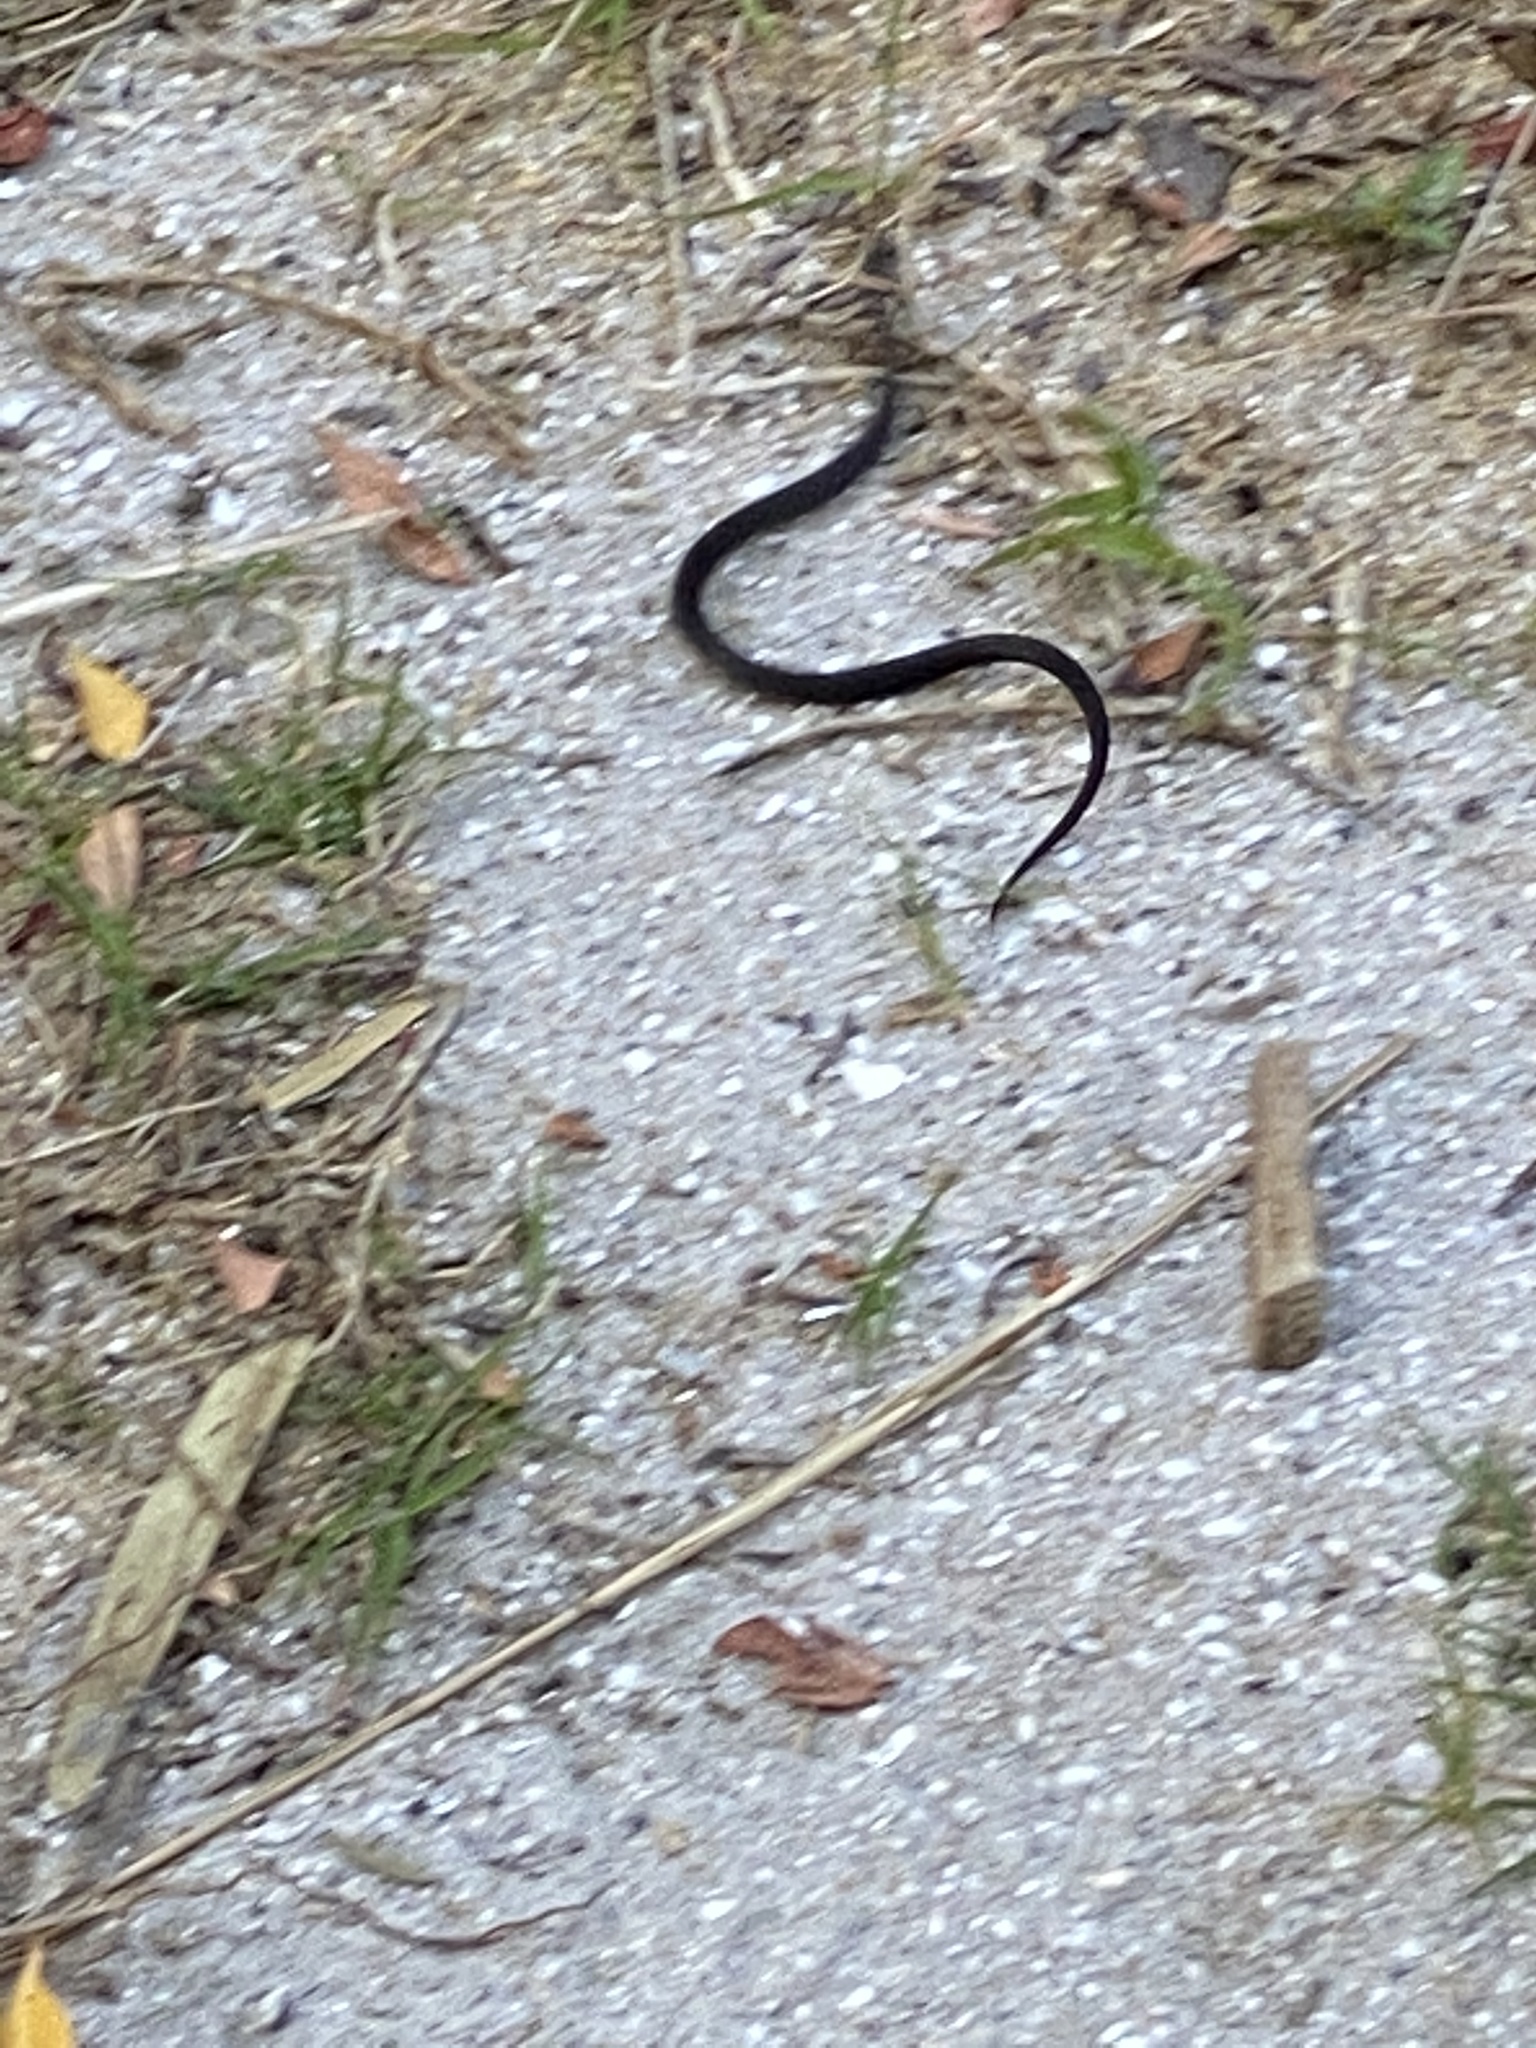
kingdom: Animalia
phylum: Chordata
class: Squamata
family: Colubridae
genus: Diadophis
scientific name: Diadophis punctatus
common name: Ringneck snake
